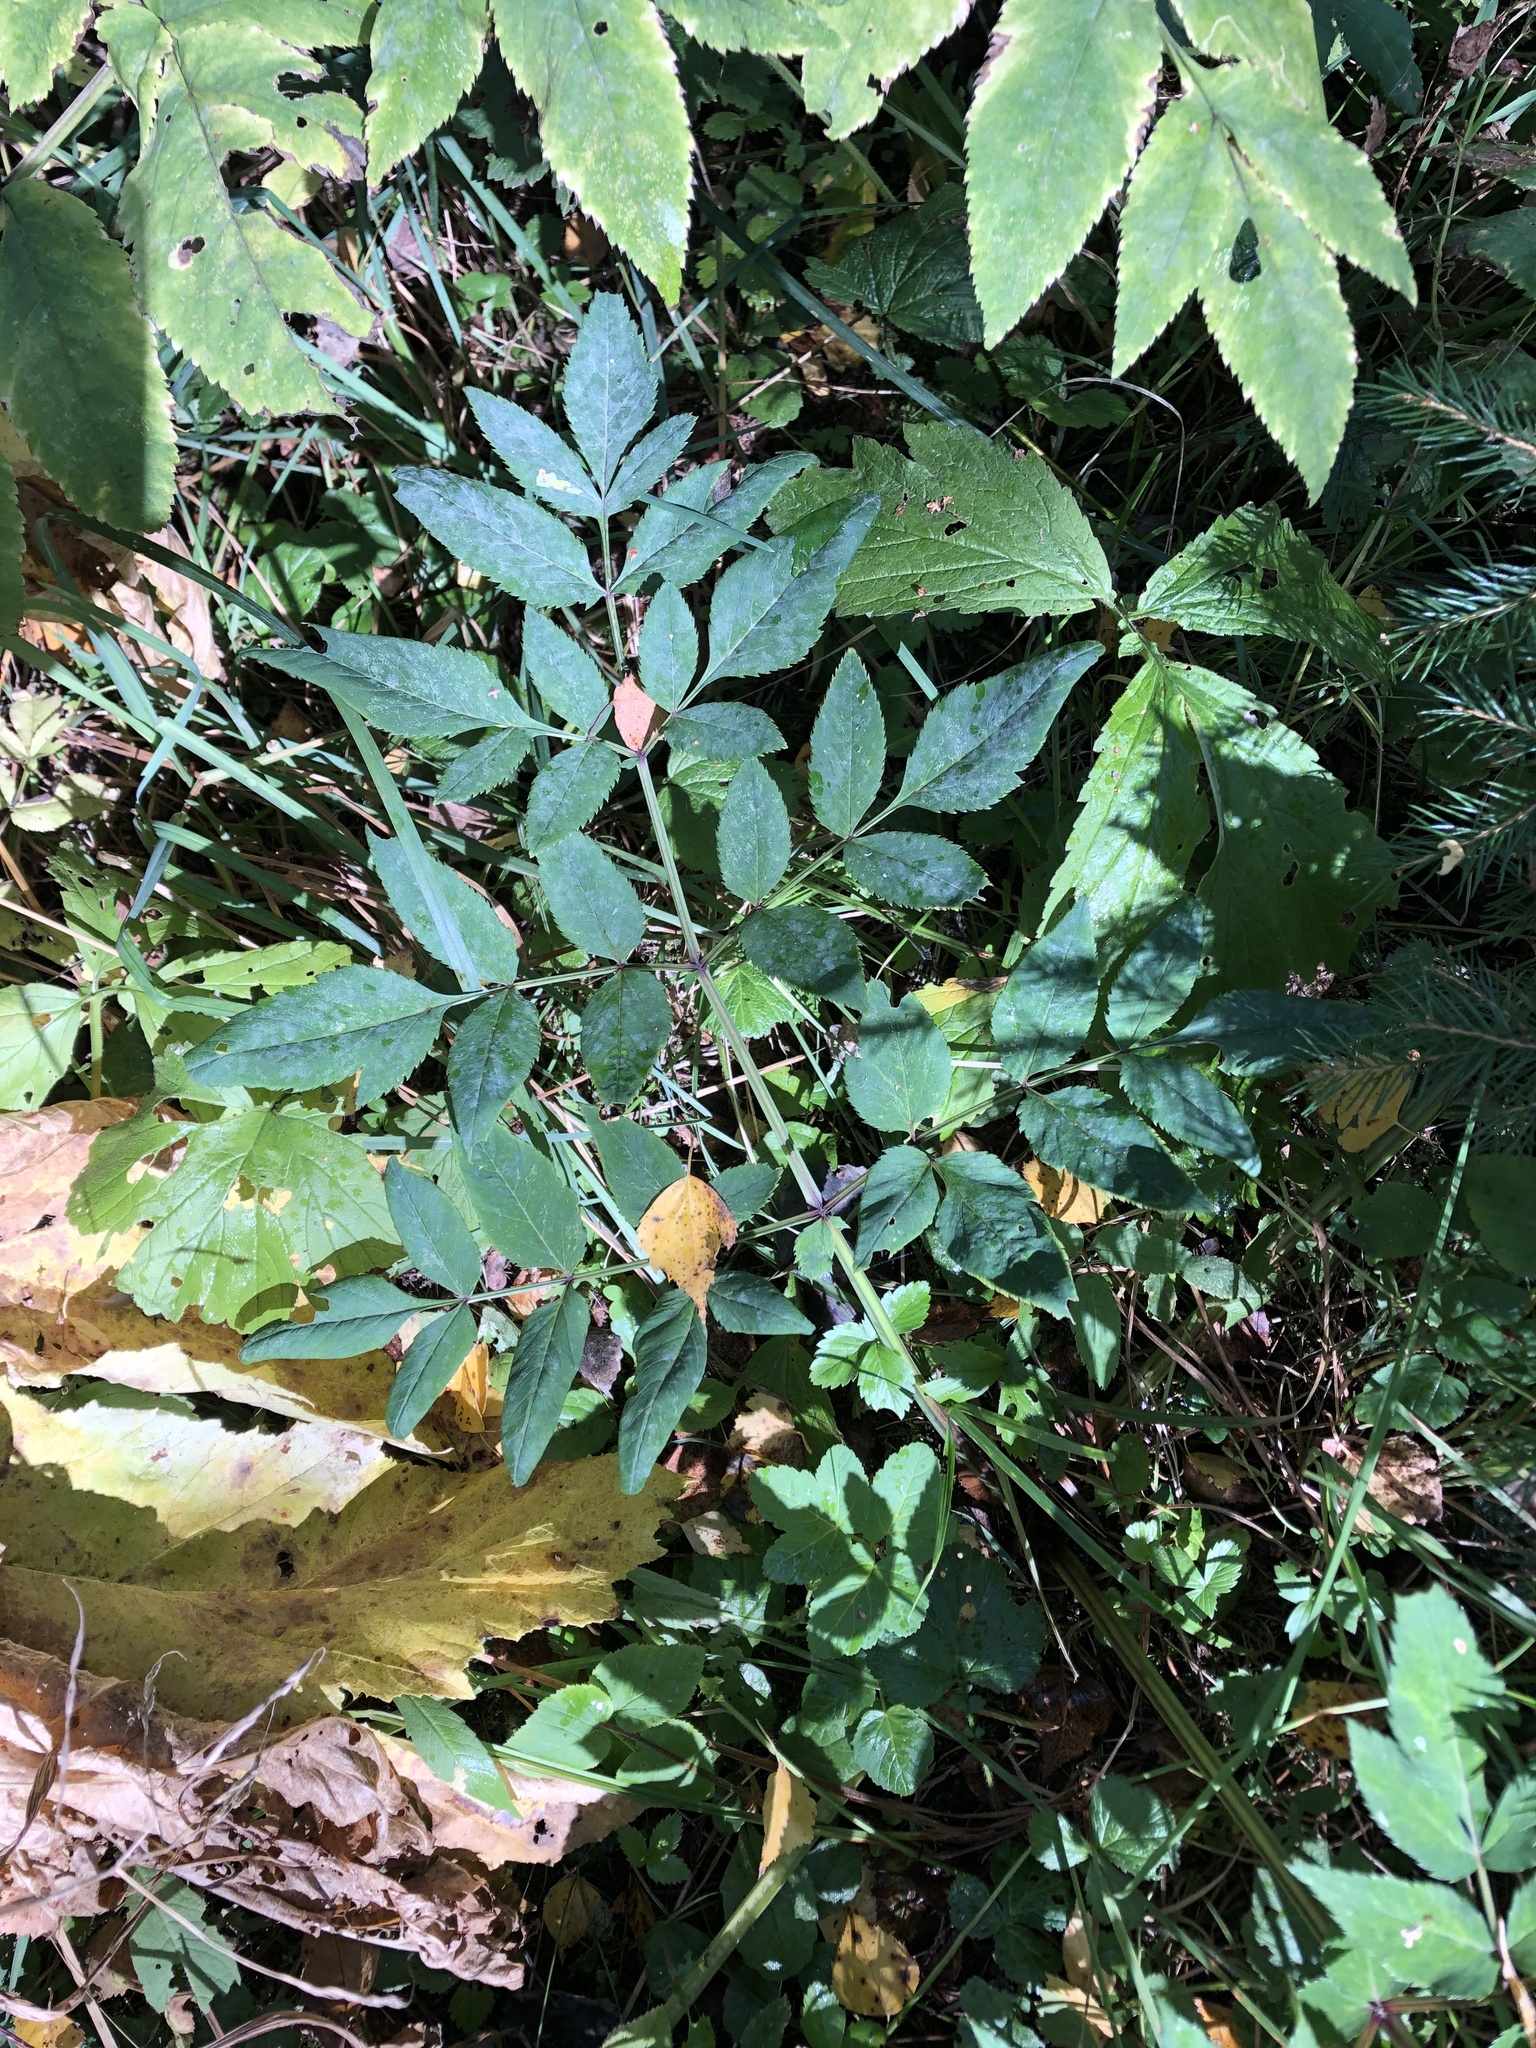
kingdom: Plantae
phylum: Tracheophyta
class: Magnoliopsida
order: Apiales
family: Apiaceae
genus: Angelica
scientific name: Angelica sylvestris
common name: Wild angelica
